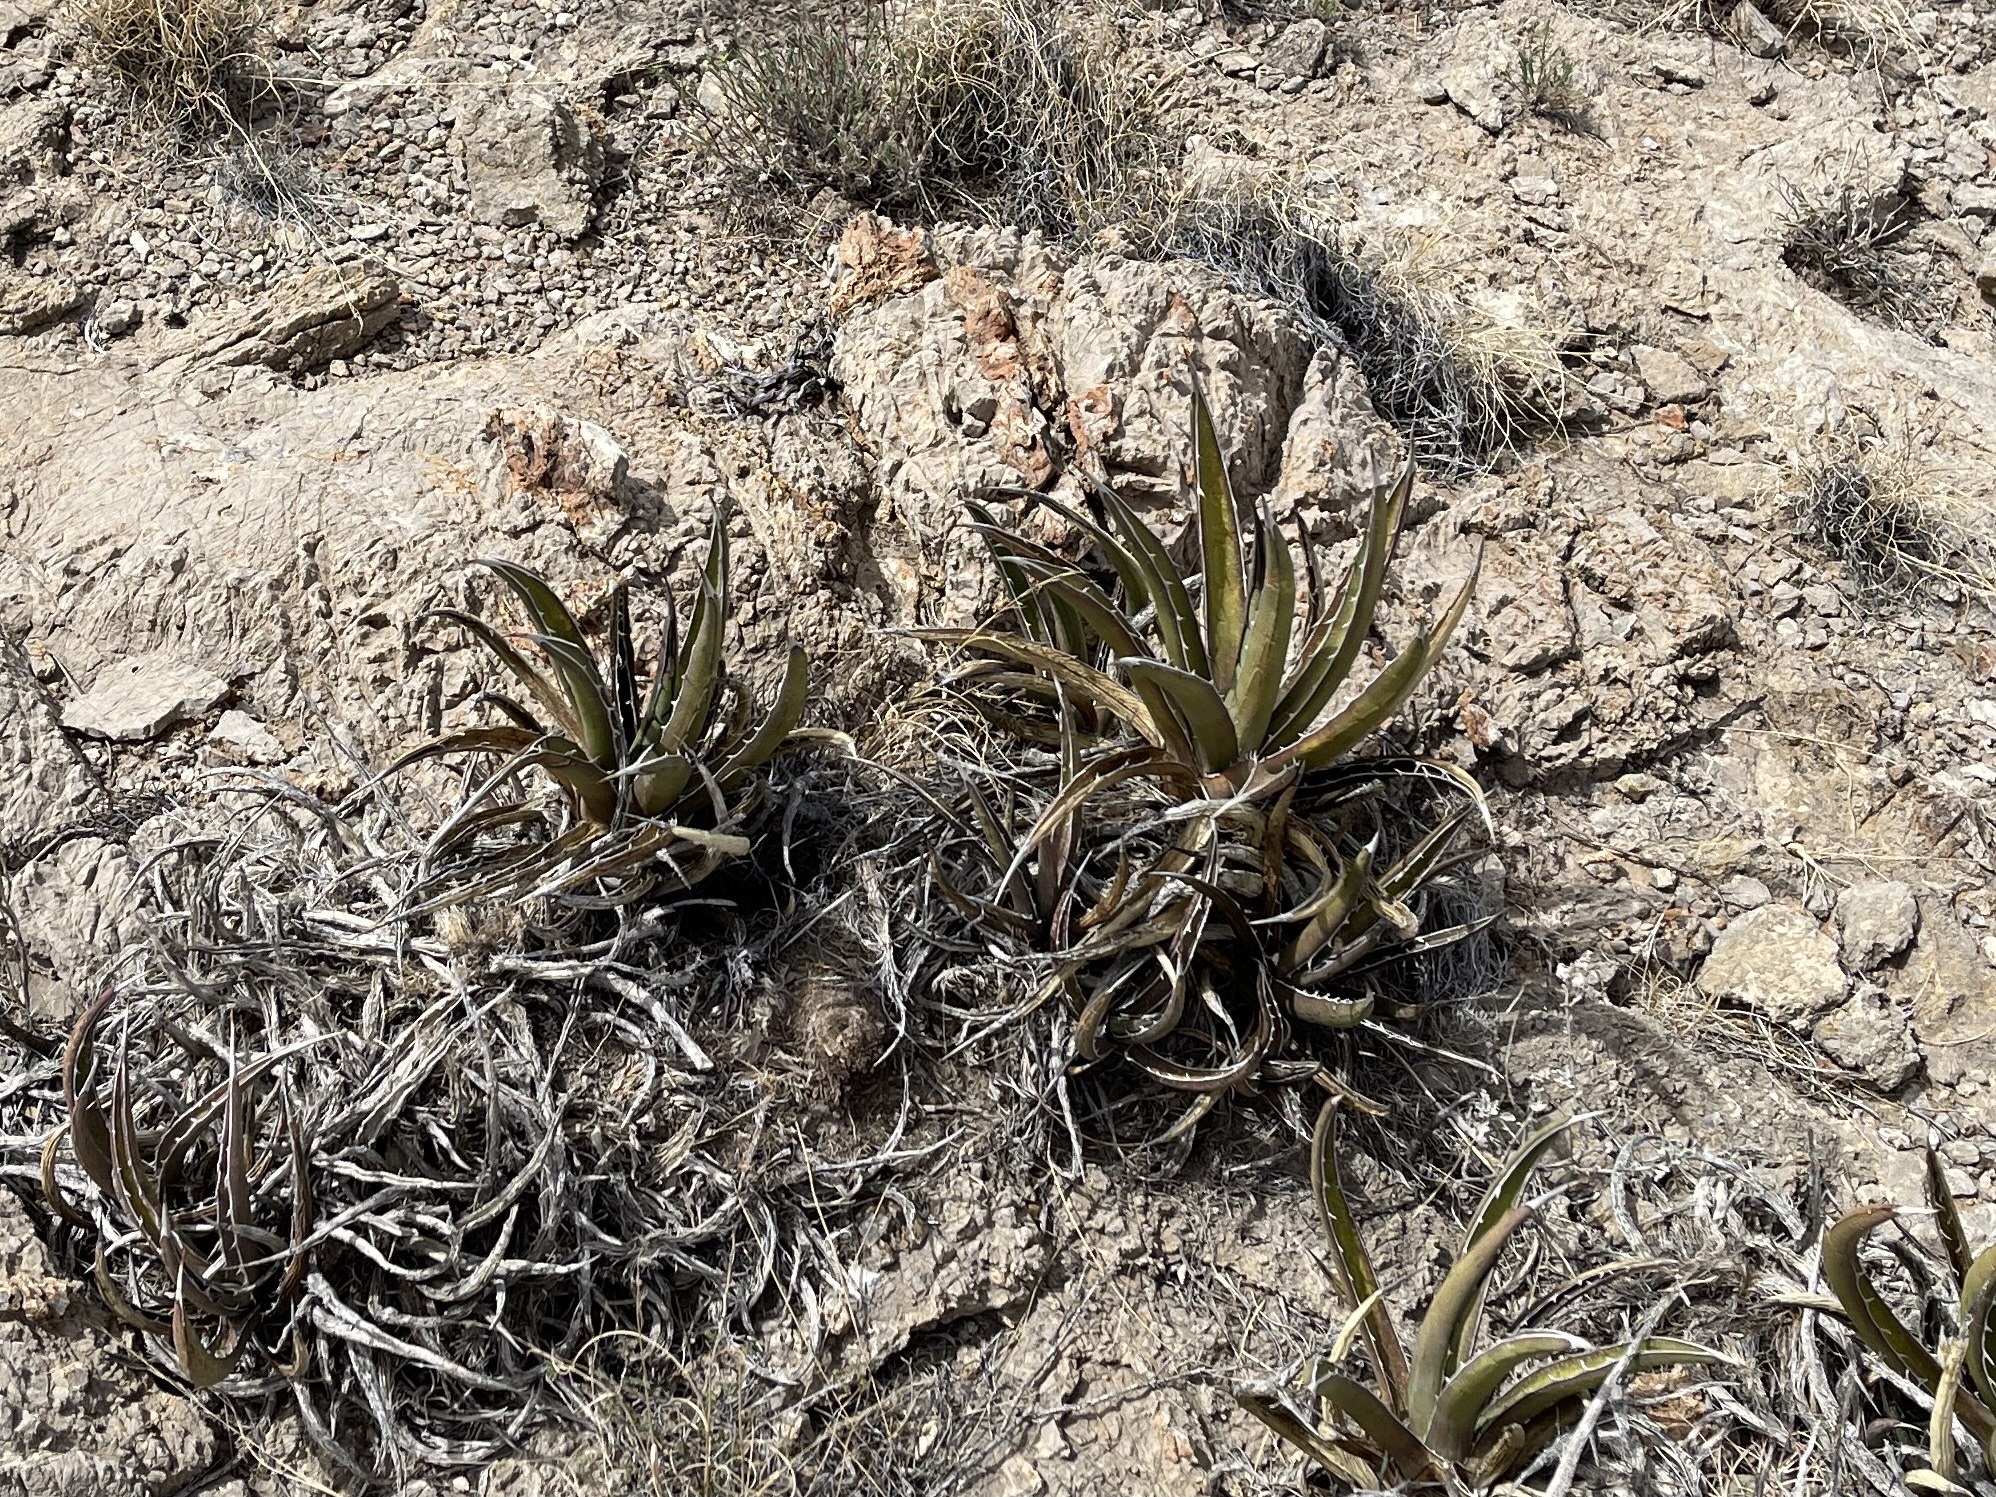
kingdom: Plantae
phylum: Tracheophyta
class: Liliopsida
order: Asparagales
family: Asparagaceae
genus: Agave
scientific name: Agave lechuguilla
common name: Lecheguilla agave
